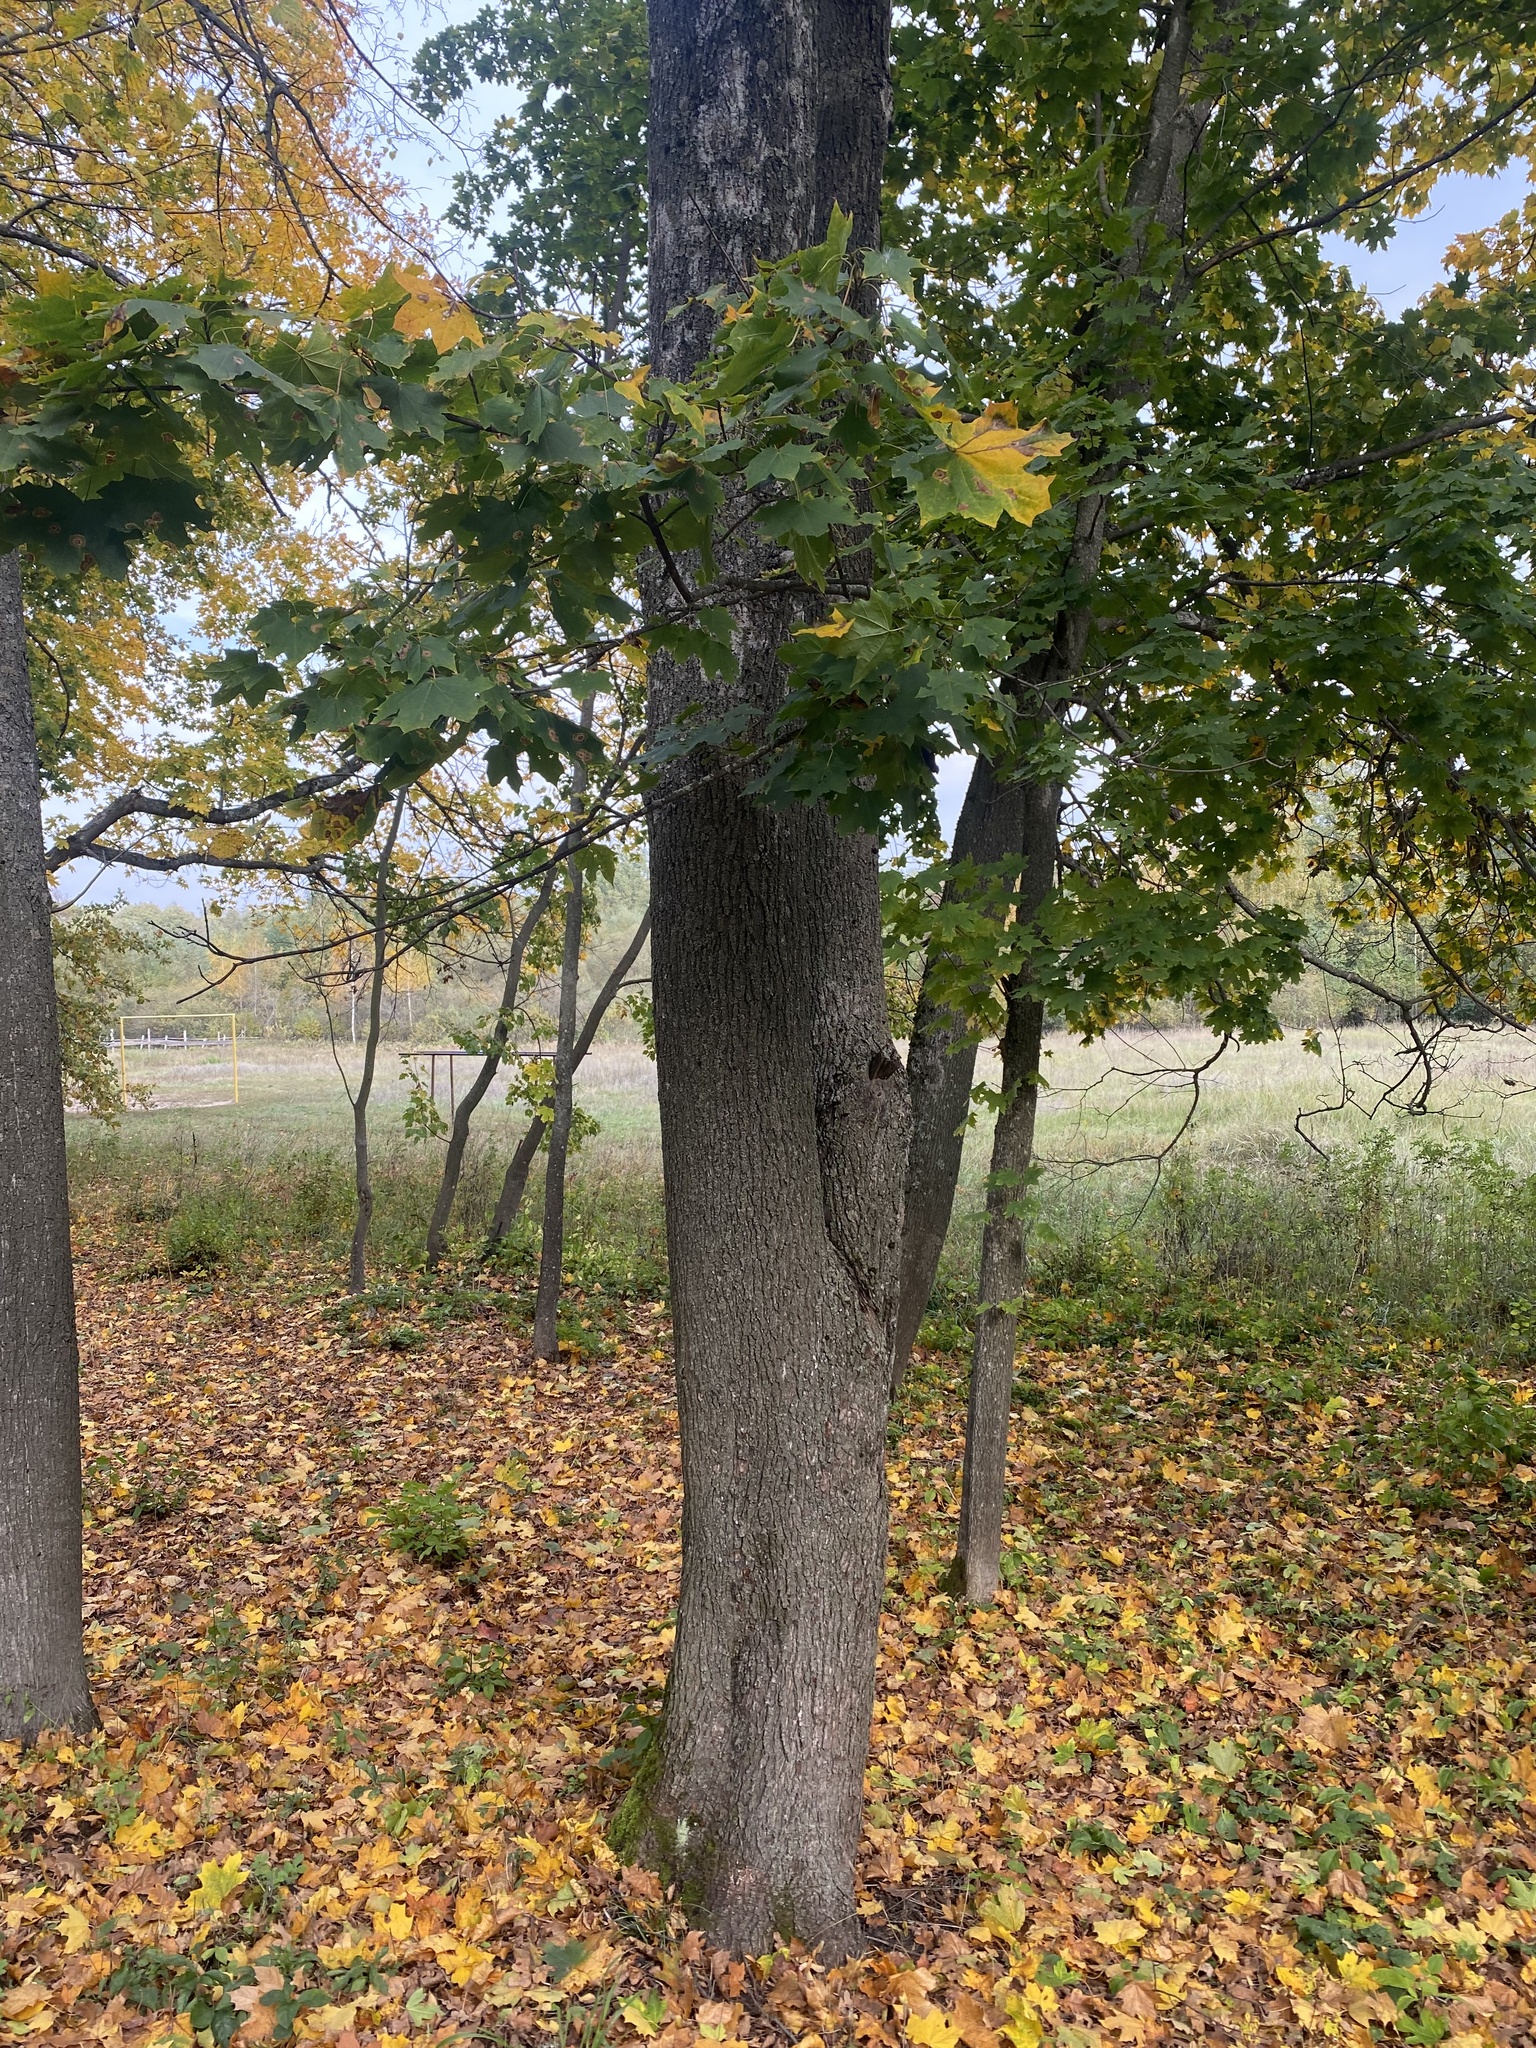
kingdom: Plantae
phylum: Tracheophyta
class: Magnoliopsida
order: Sapindales
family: Sapindaceae
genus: Acer
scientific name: Acer platanoides
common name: Norway maple
